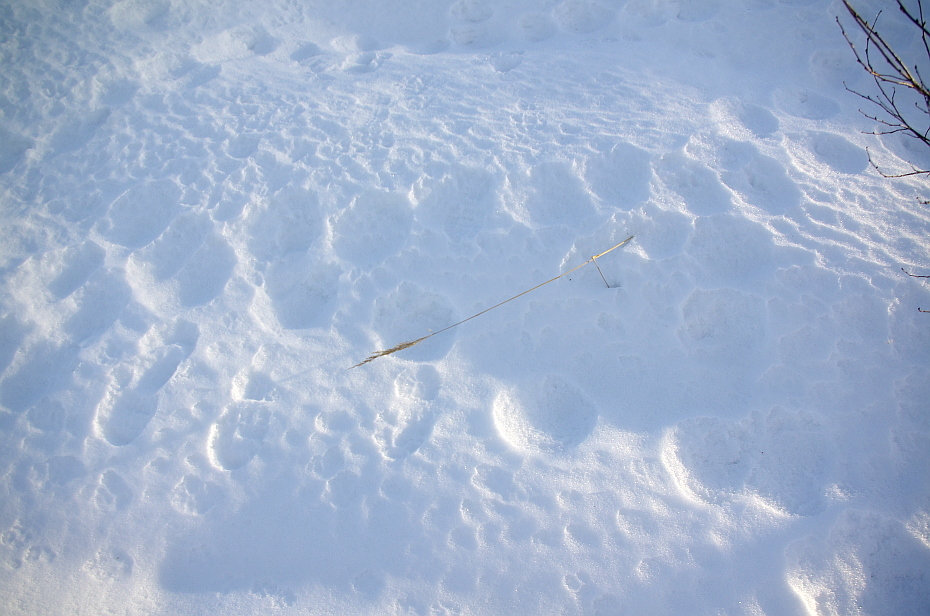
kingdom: Plantae
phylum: Tracheophyta
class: Liliopsida
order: Poales
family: Poaceae
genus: Calamagrostis
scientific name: Calamagrostis epigejos
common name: Wood small-reed
